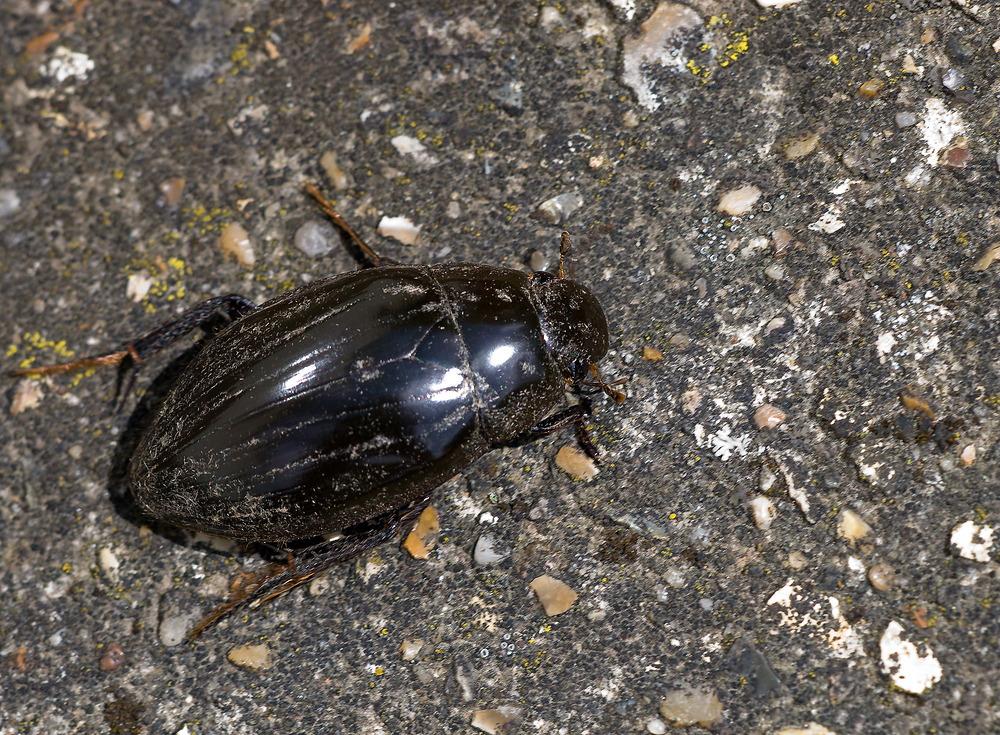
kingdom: Animalia
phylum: Arthropoda
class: Insecta
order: Coleoptera
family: Hydrophilidae
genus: Hydrophilus
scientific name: Hydrophilus piceus
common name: Great silver water beetle
